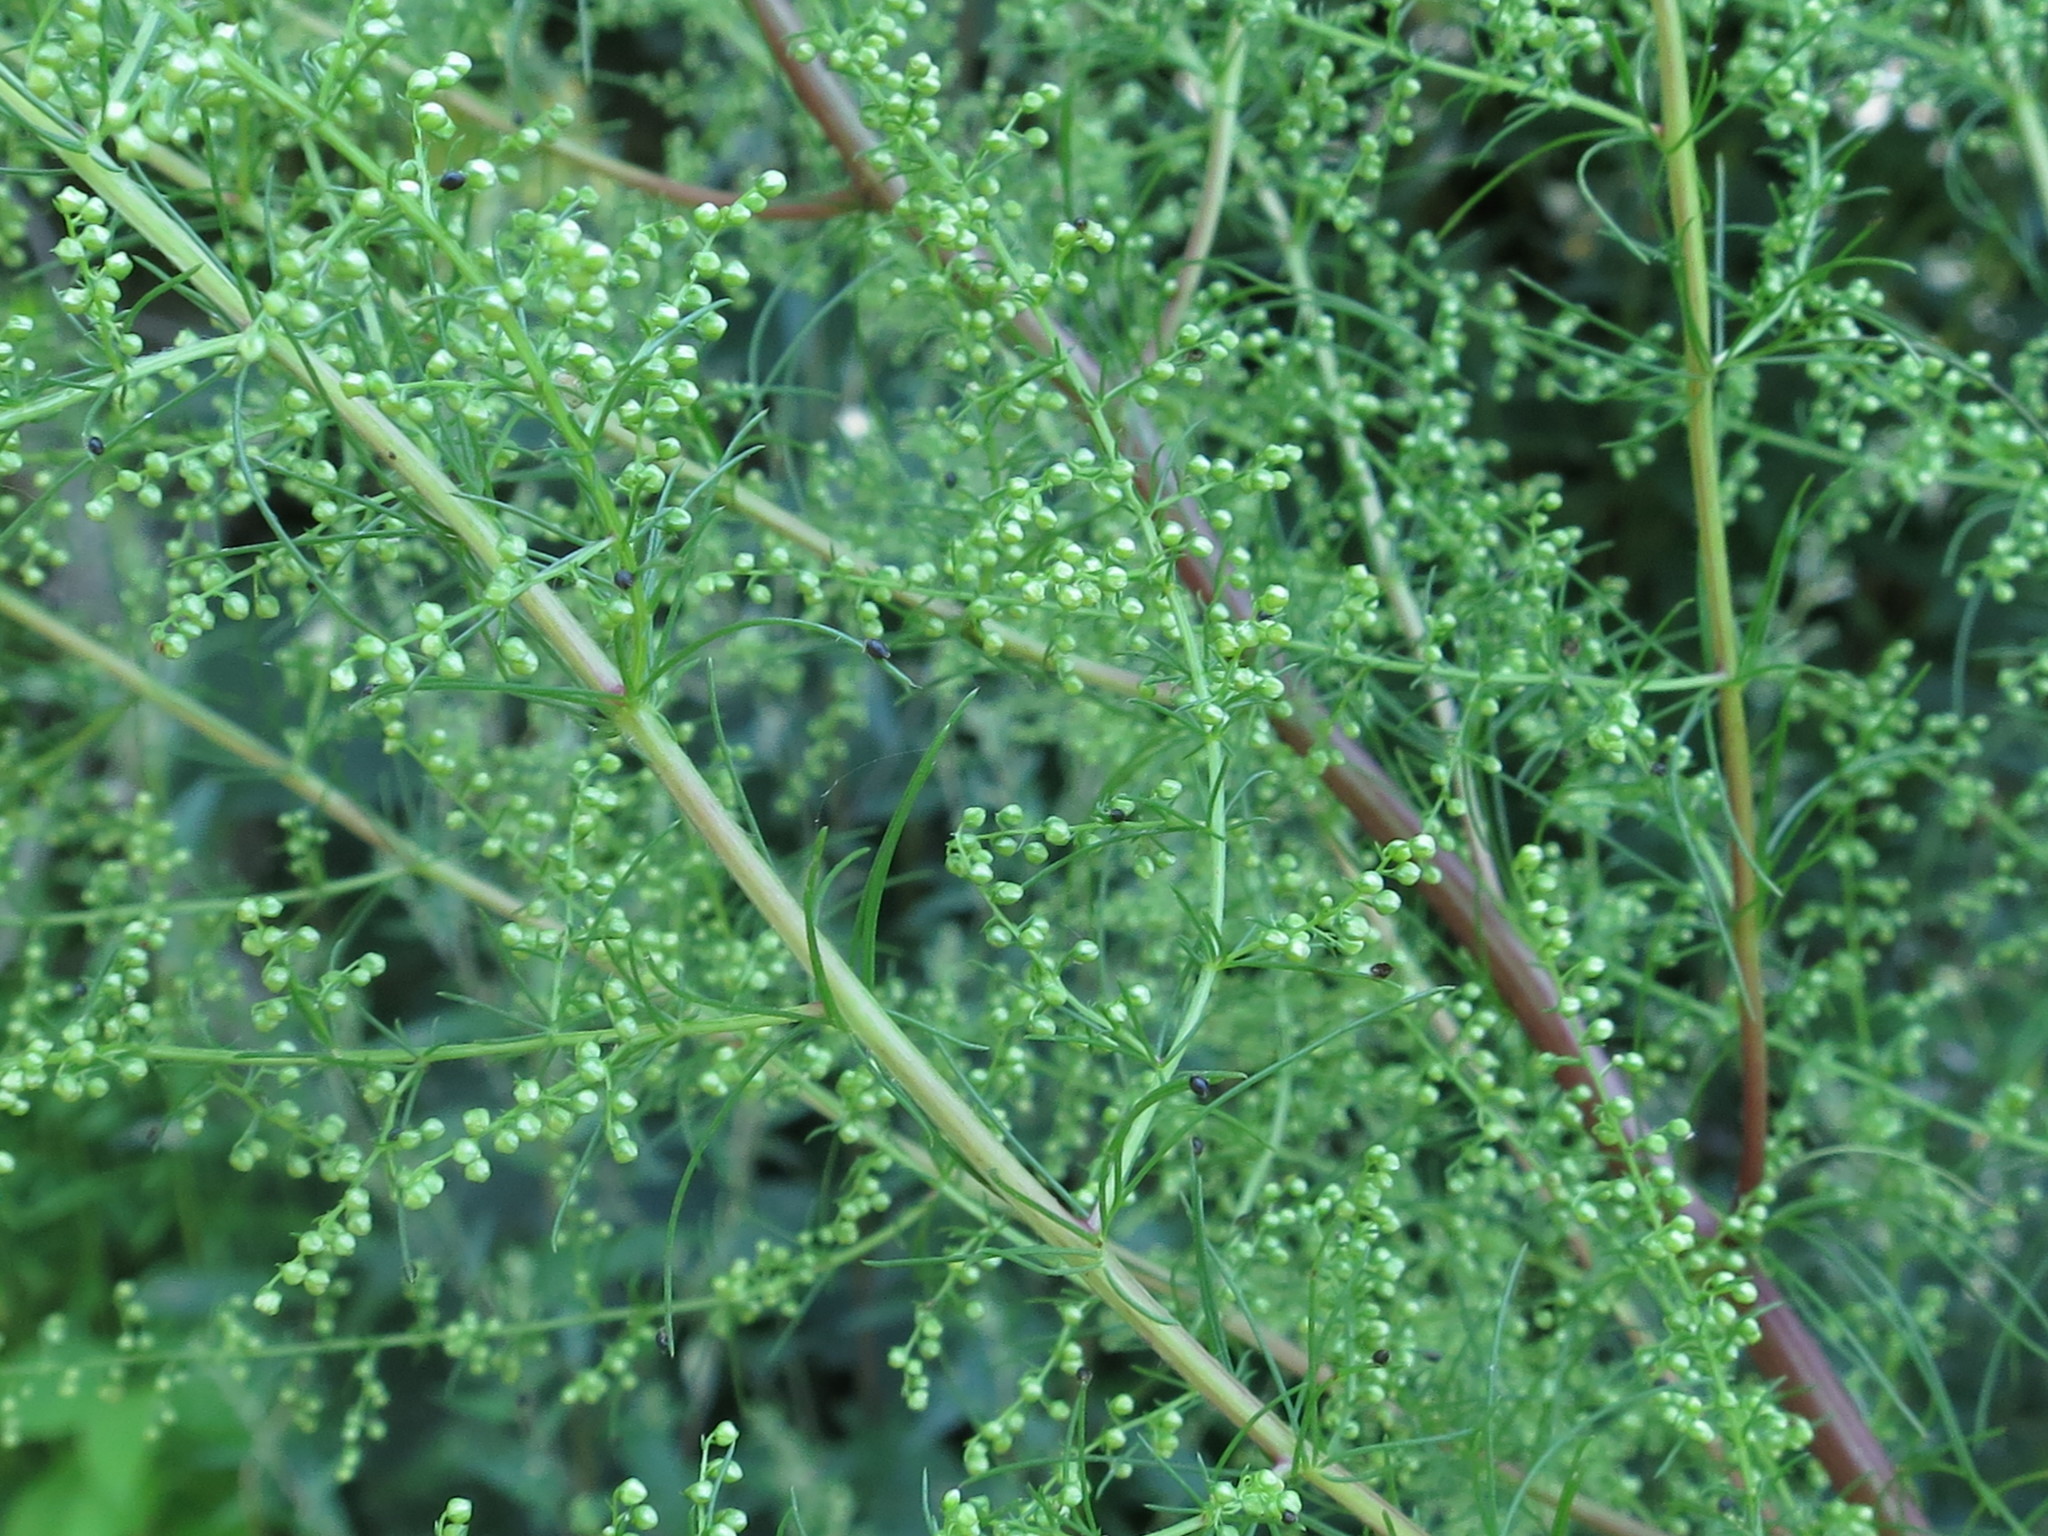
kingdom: Plantae
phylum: Tracheophyta
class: Magnoliopsida
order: Asterales
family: Asteraceae
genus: Artemisia
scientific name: Artemisia scoparia
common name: Redstem wormwood
